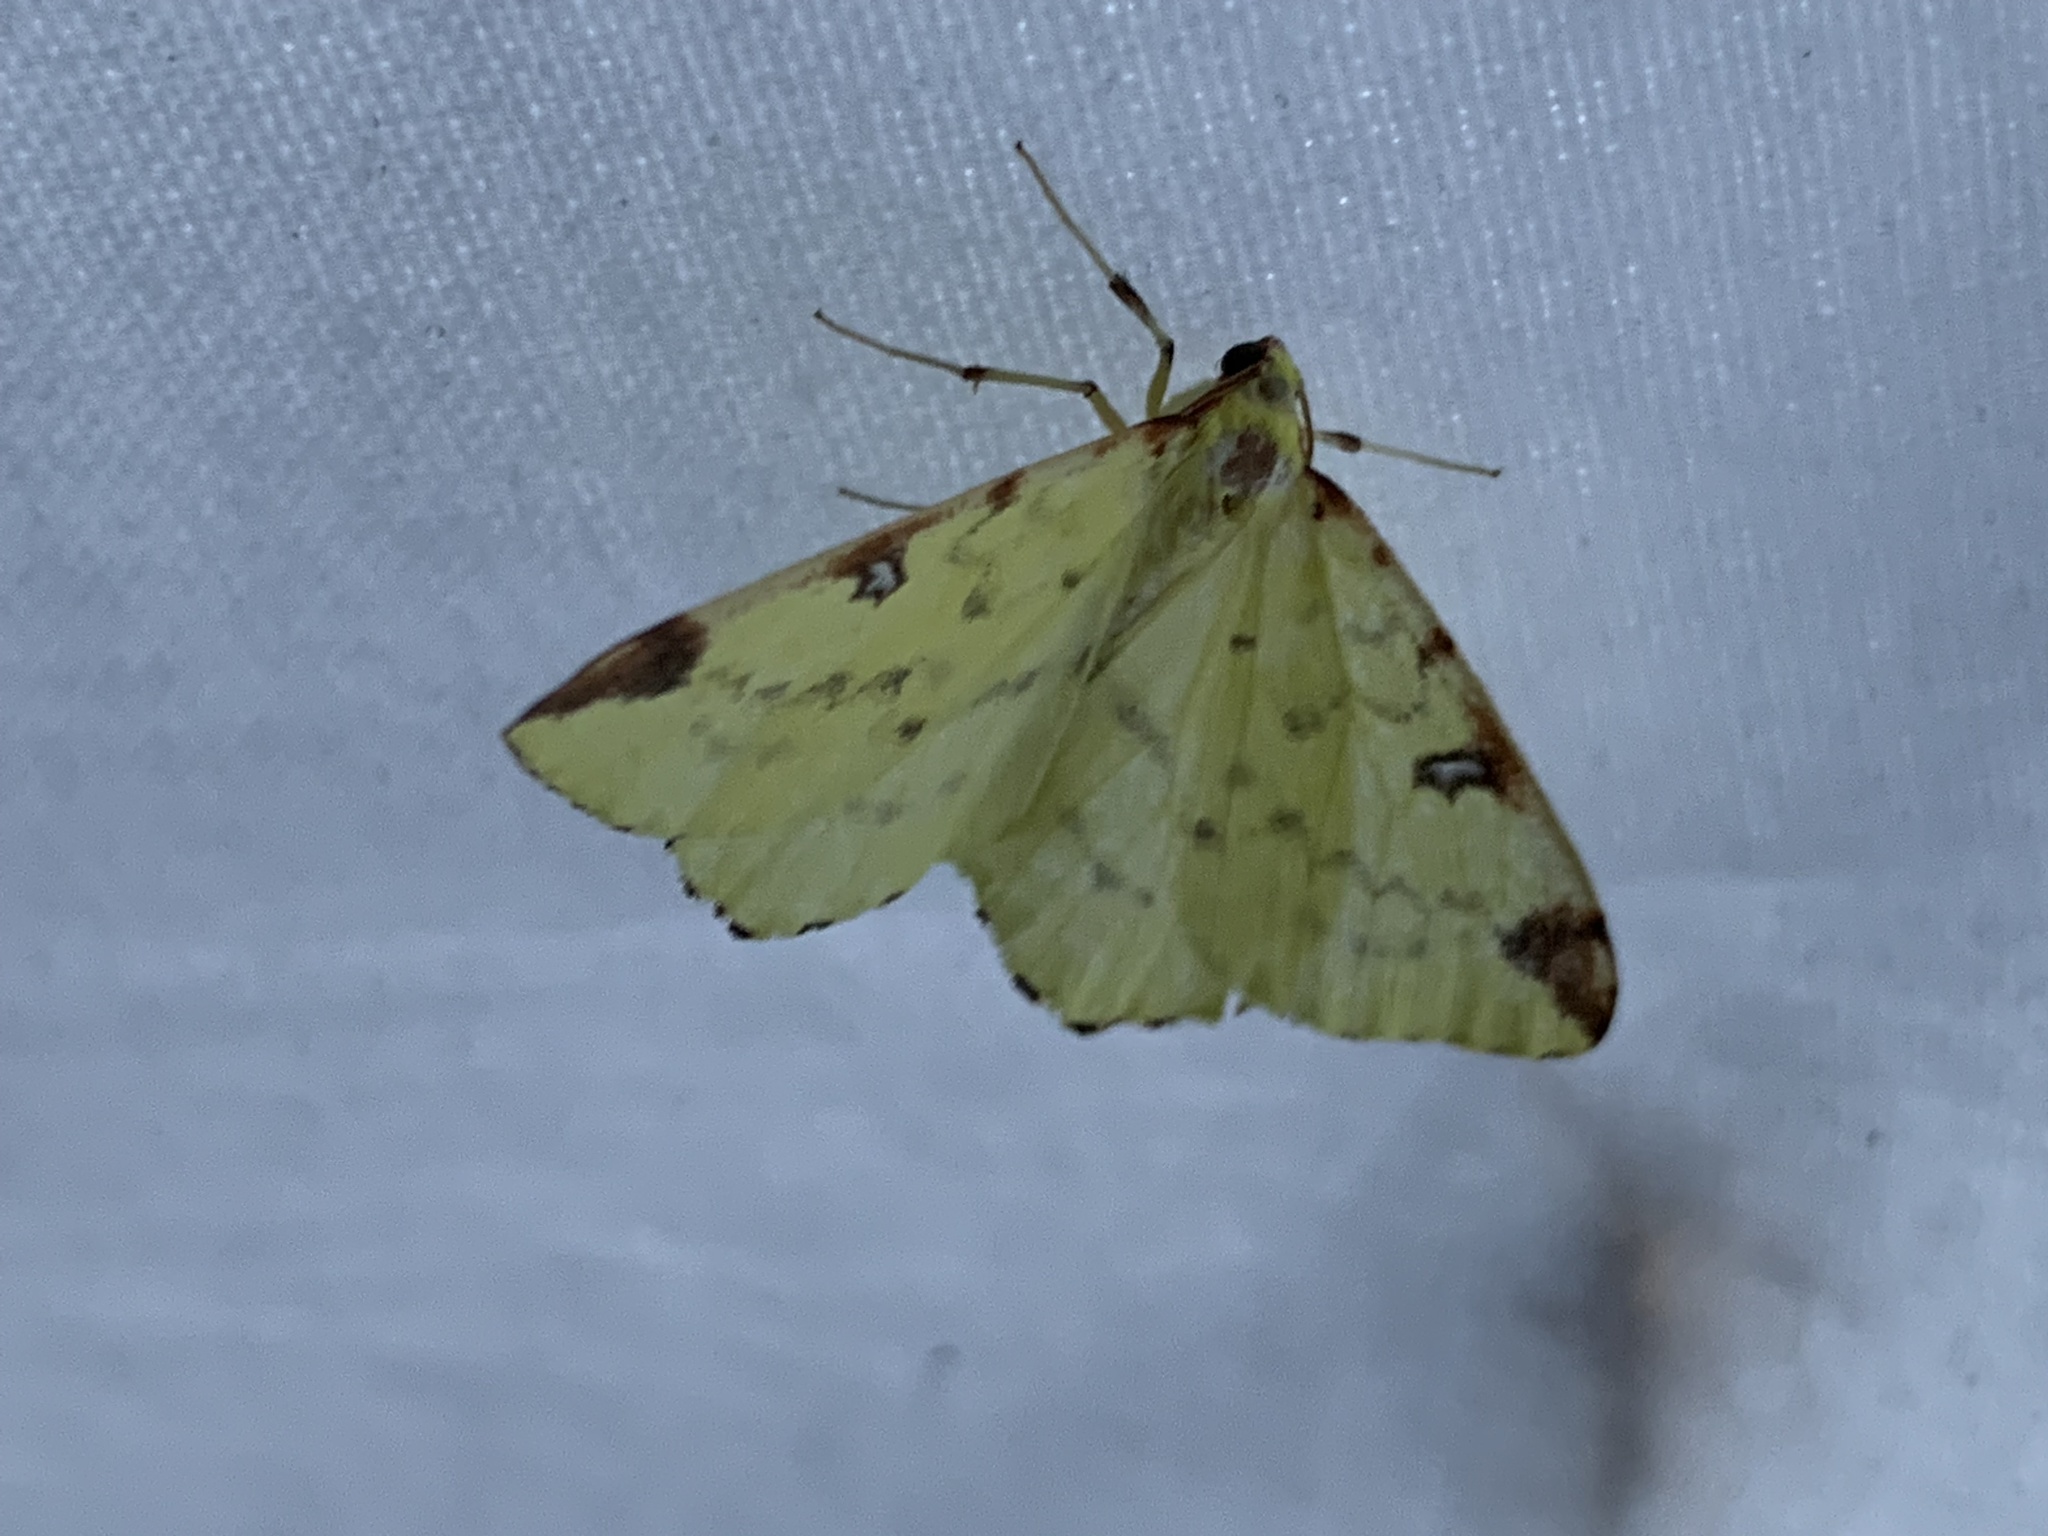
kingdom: Animalia
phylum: Arthropoda
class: Insecta
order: Lepidoptera
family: Geometridae
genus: Opisthograptis
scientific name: Opisthograptis luteolata
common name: Brimstone moth
